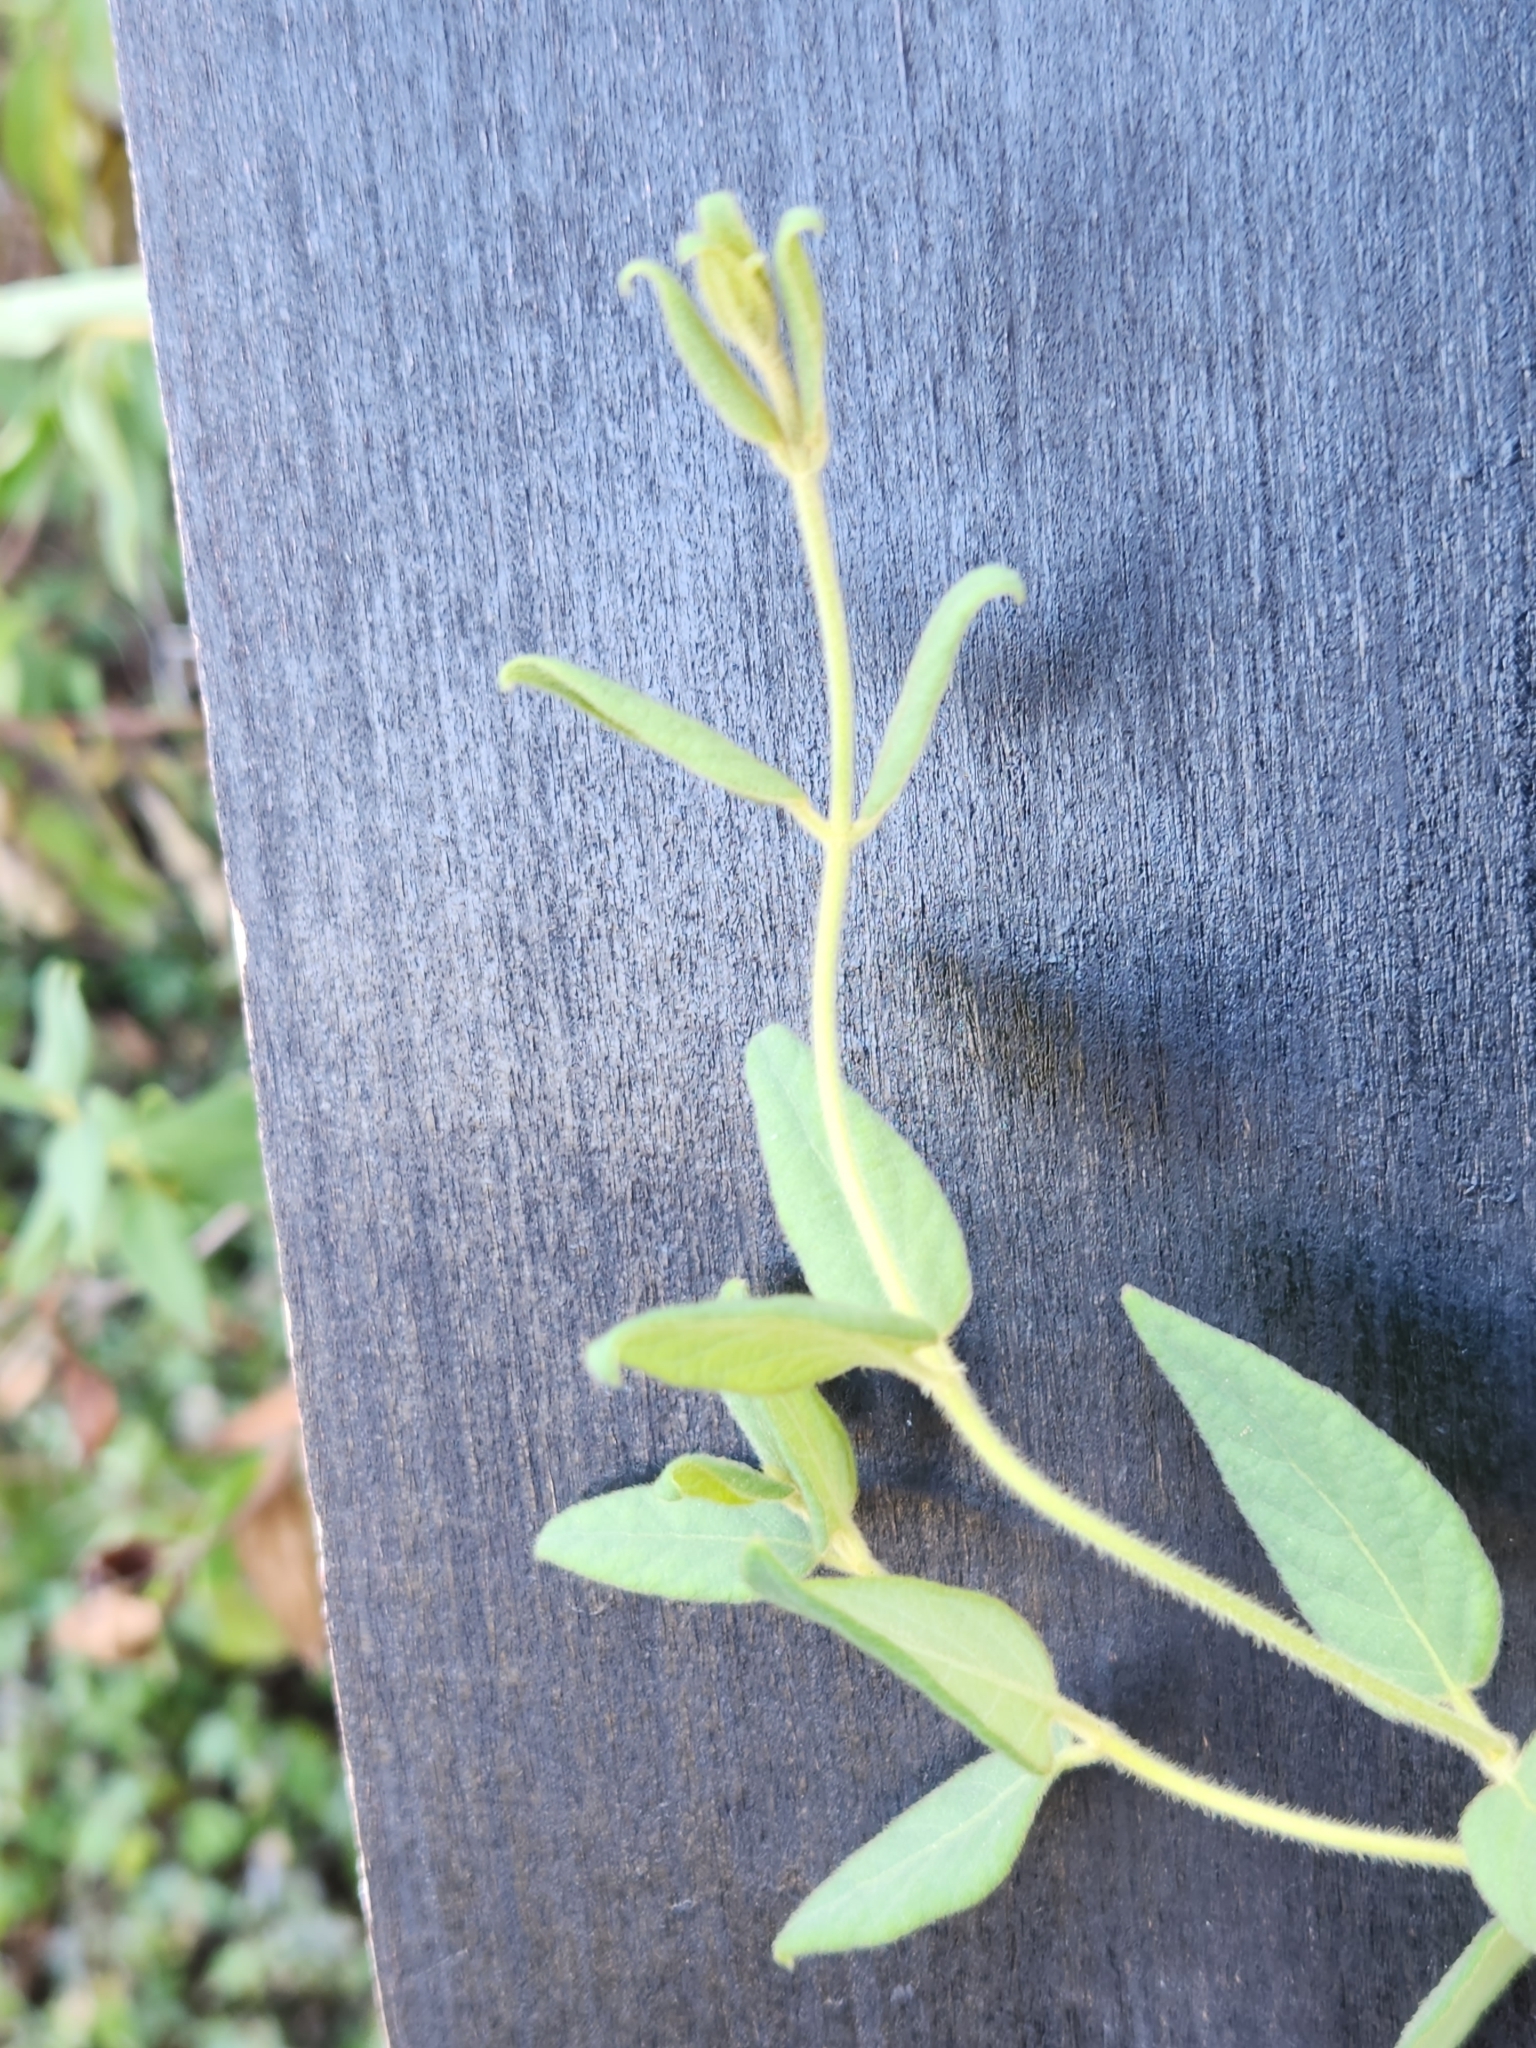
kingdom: Plantae
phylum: Tracheophyta
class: Magnoliopsida
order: Dipsacales
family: Caprifoliaceae
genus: Lonicera
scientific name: Lonicera japonica
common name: Japanese honeysuckle
